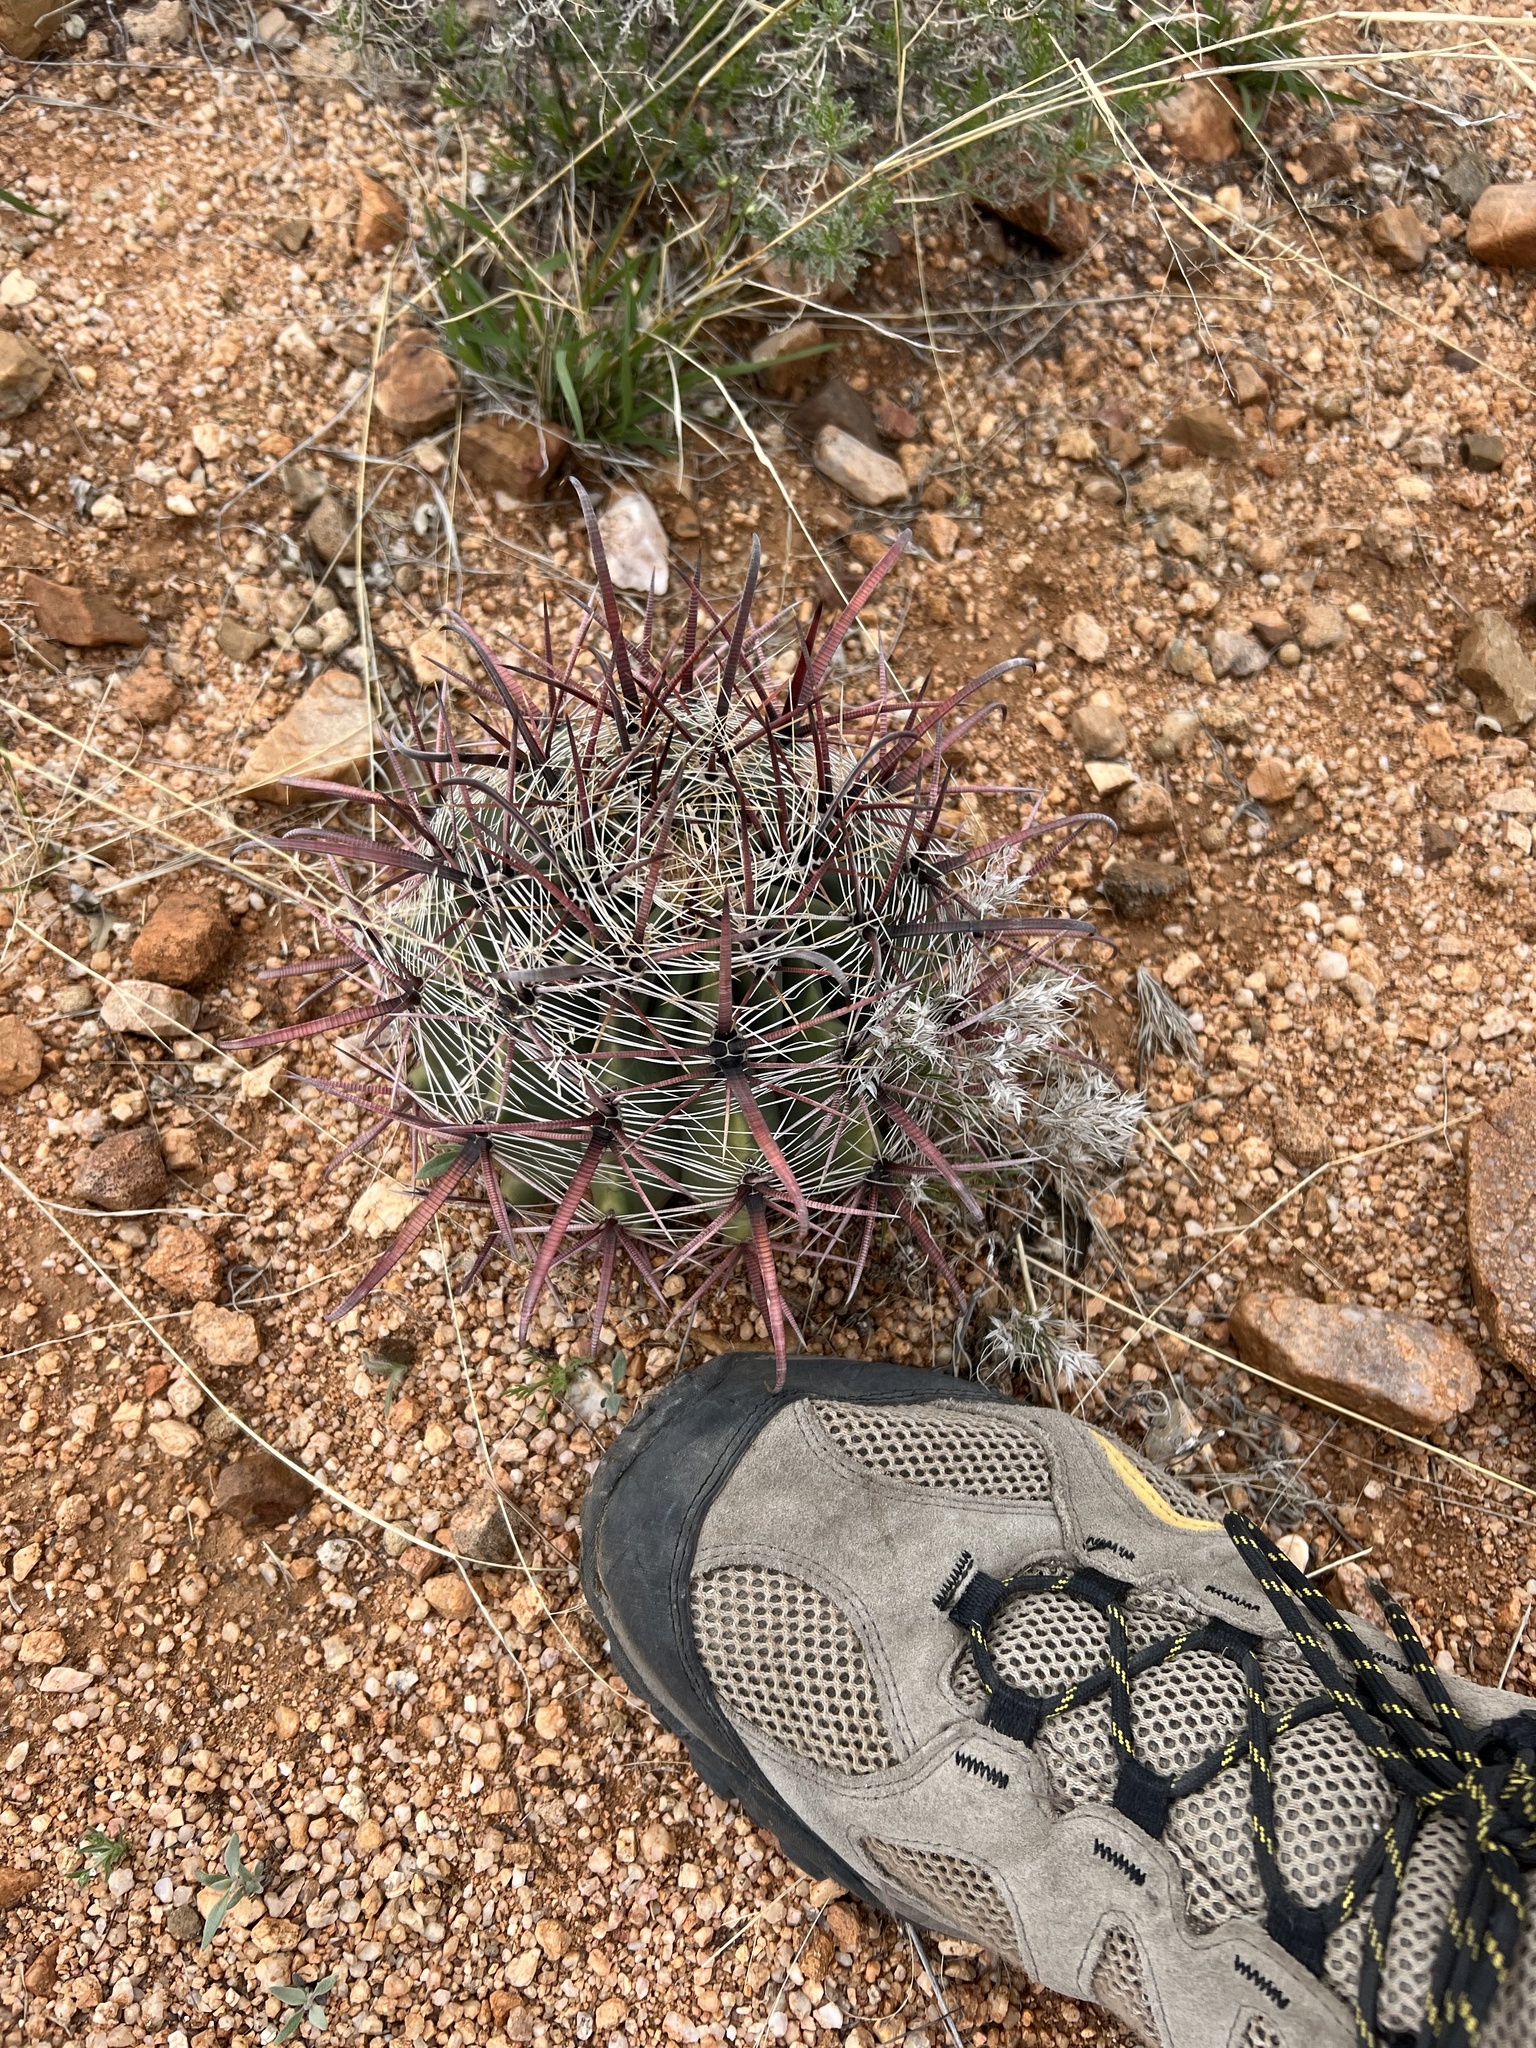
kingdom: Plantae
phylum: Tracheophyta
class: Magnoliopsida
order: Caryophyllales
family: Cactaceae
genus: Ferocactus
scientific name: Ferocactus wislizeni
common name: Candy barrel cactus
